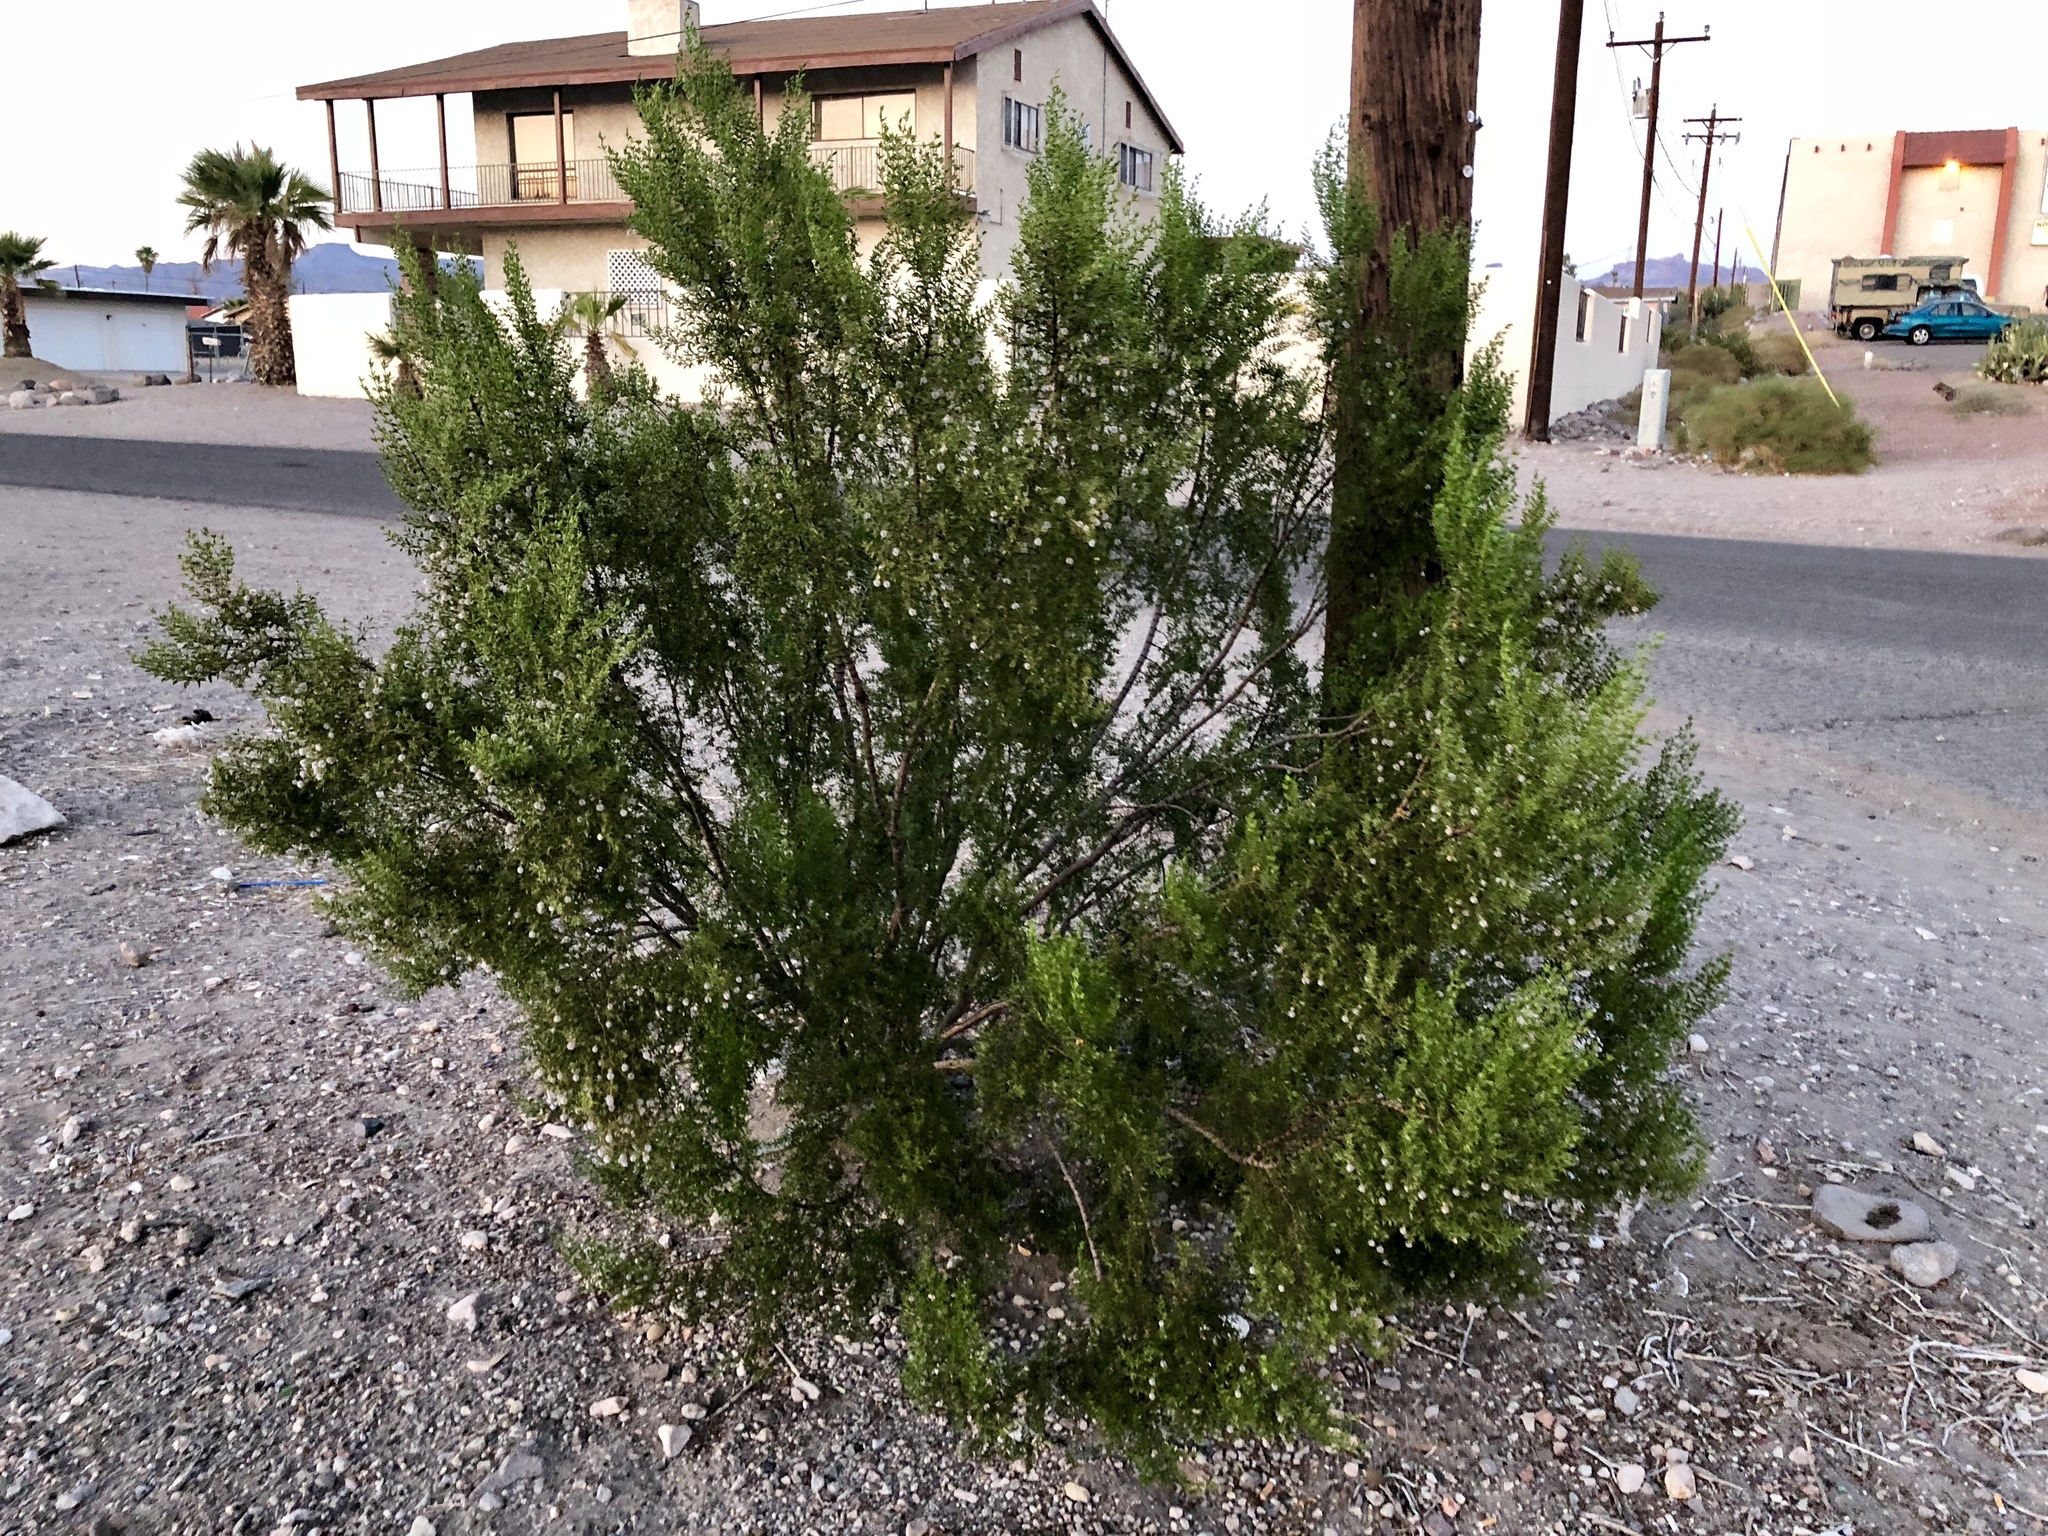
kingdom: Plantae
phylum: Tracheophyta
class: Magnoliopsida
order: Zygophyllales
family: Zygophyllaceae
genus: Larrea
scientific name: Larrea tridentata
